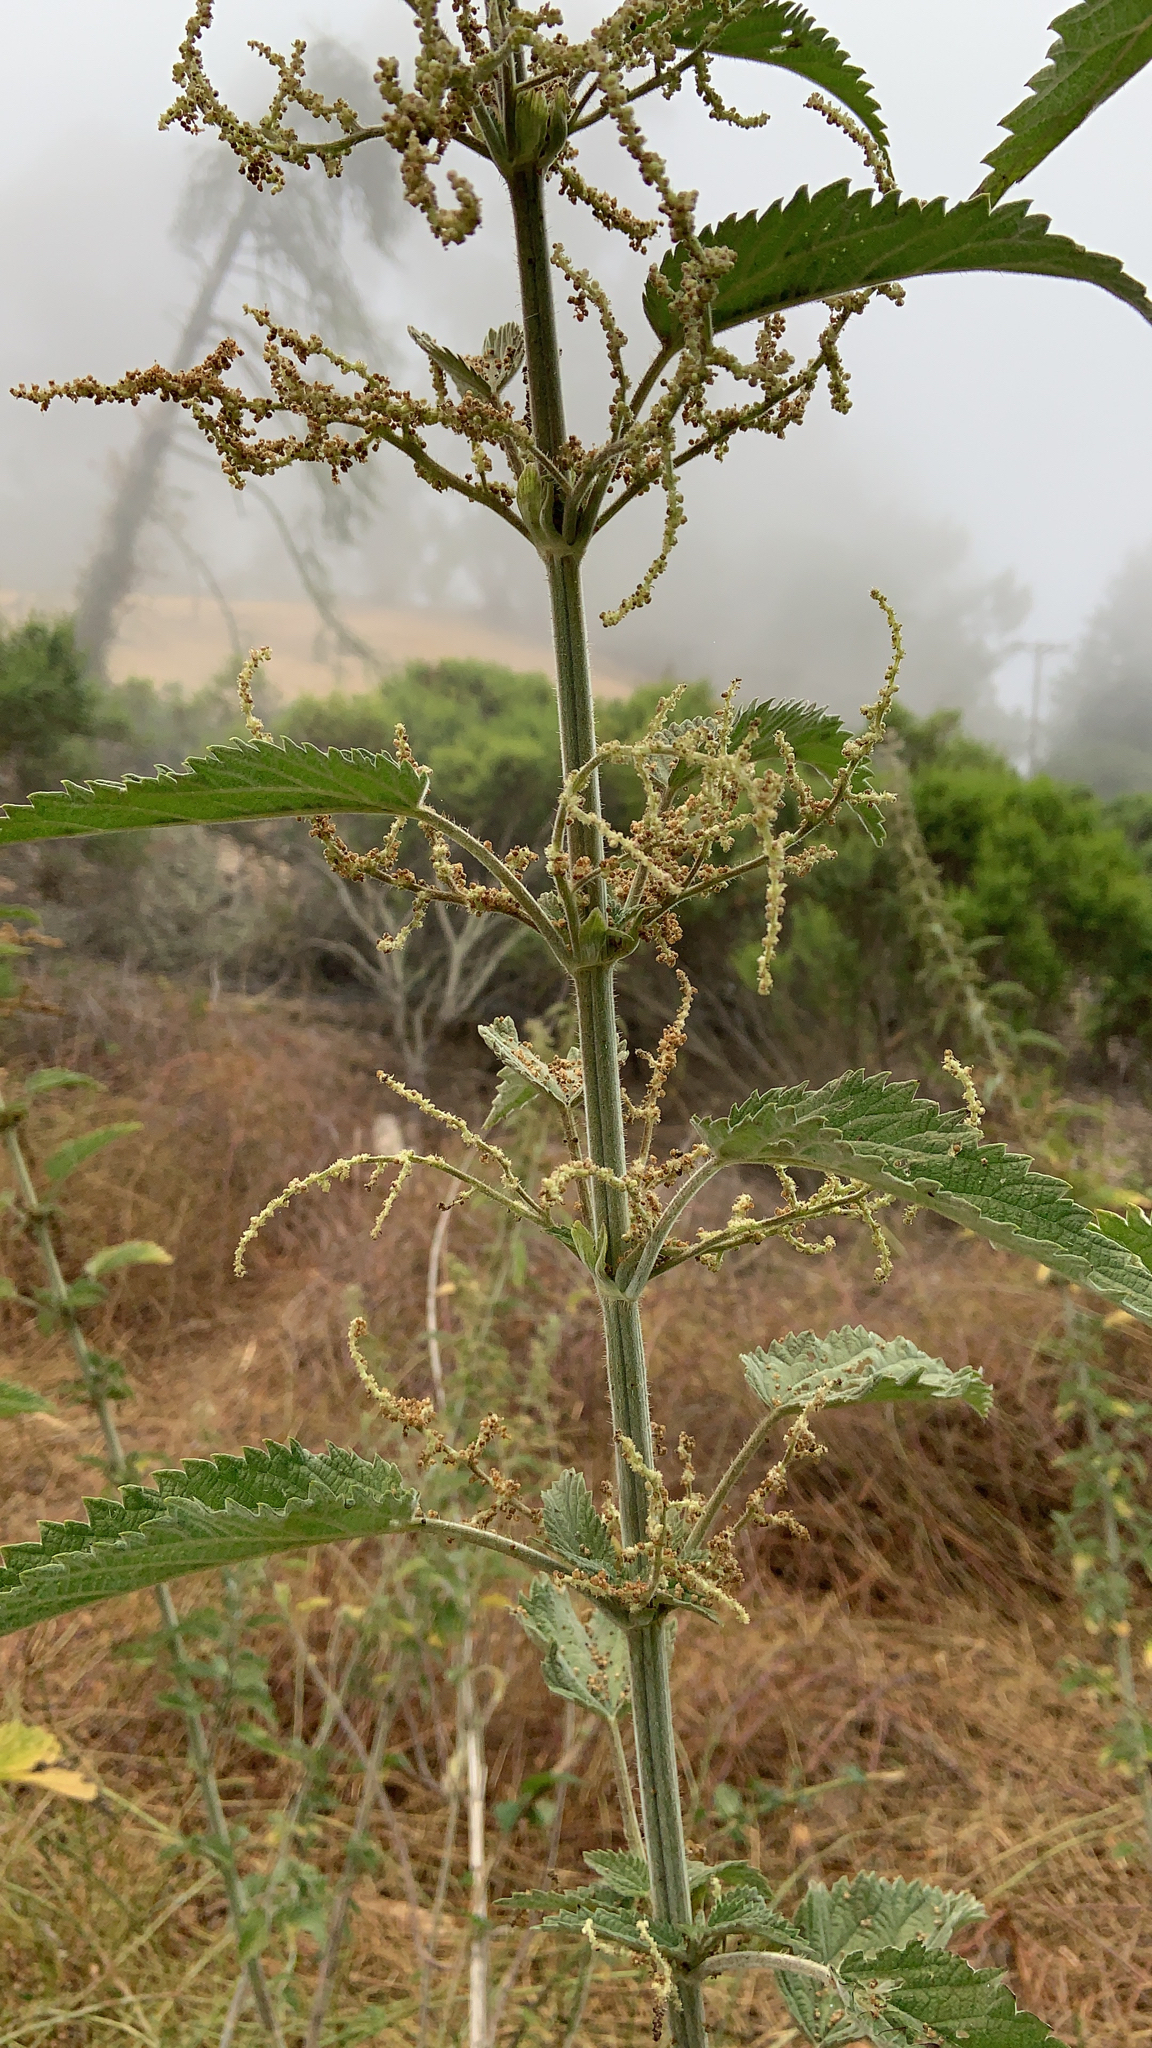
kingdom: Plantae
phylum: Tracheophyta
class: Magnoliopsida
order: Rosales
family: Urticaceae
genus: Urtica
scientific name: Urtica dioica
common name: Common nettle
